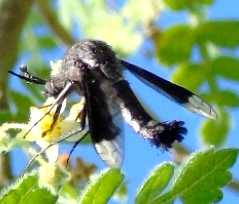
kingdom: Animalia
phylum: Arthropoda
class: Insecta
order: Diptera
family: Bombyliidae
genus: Lepidophora
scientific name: Lepidophora vetusta
